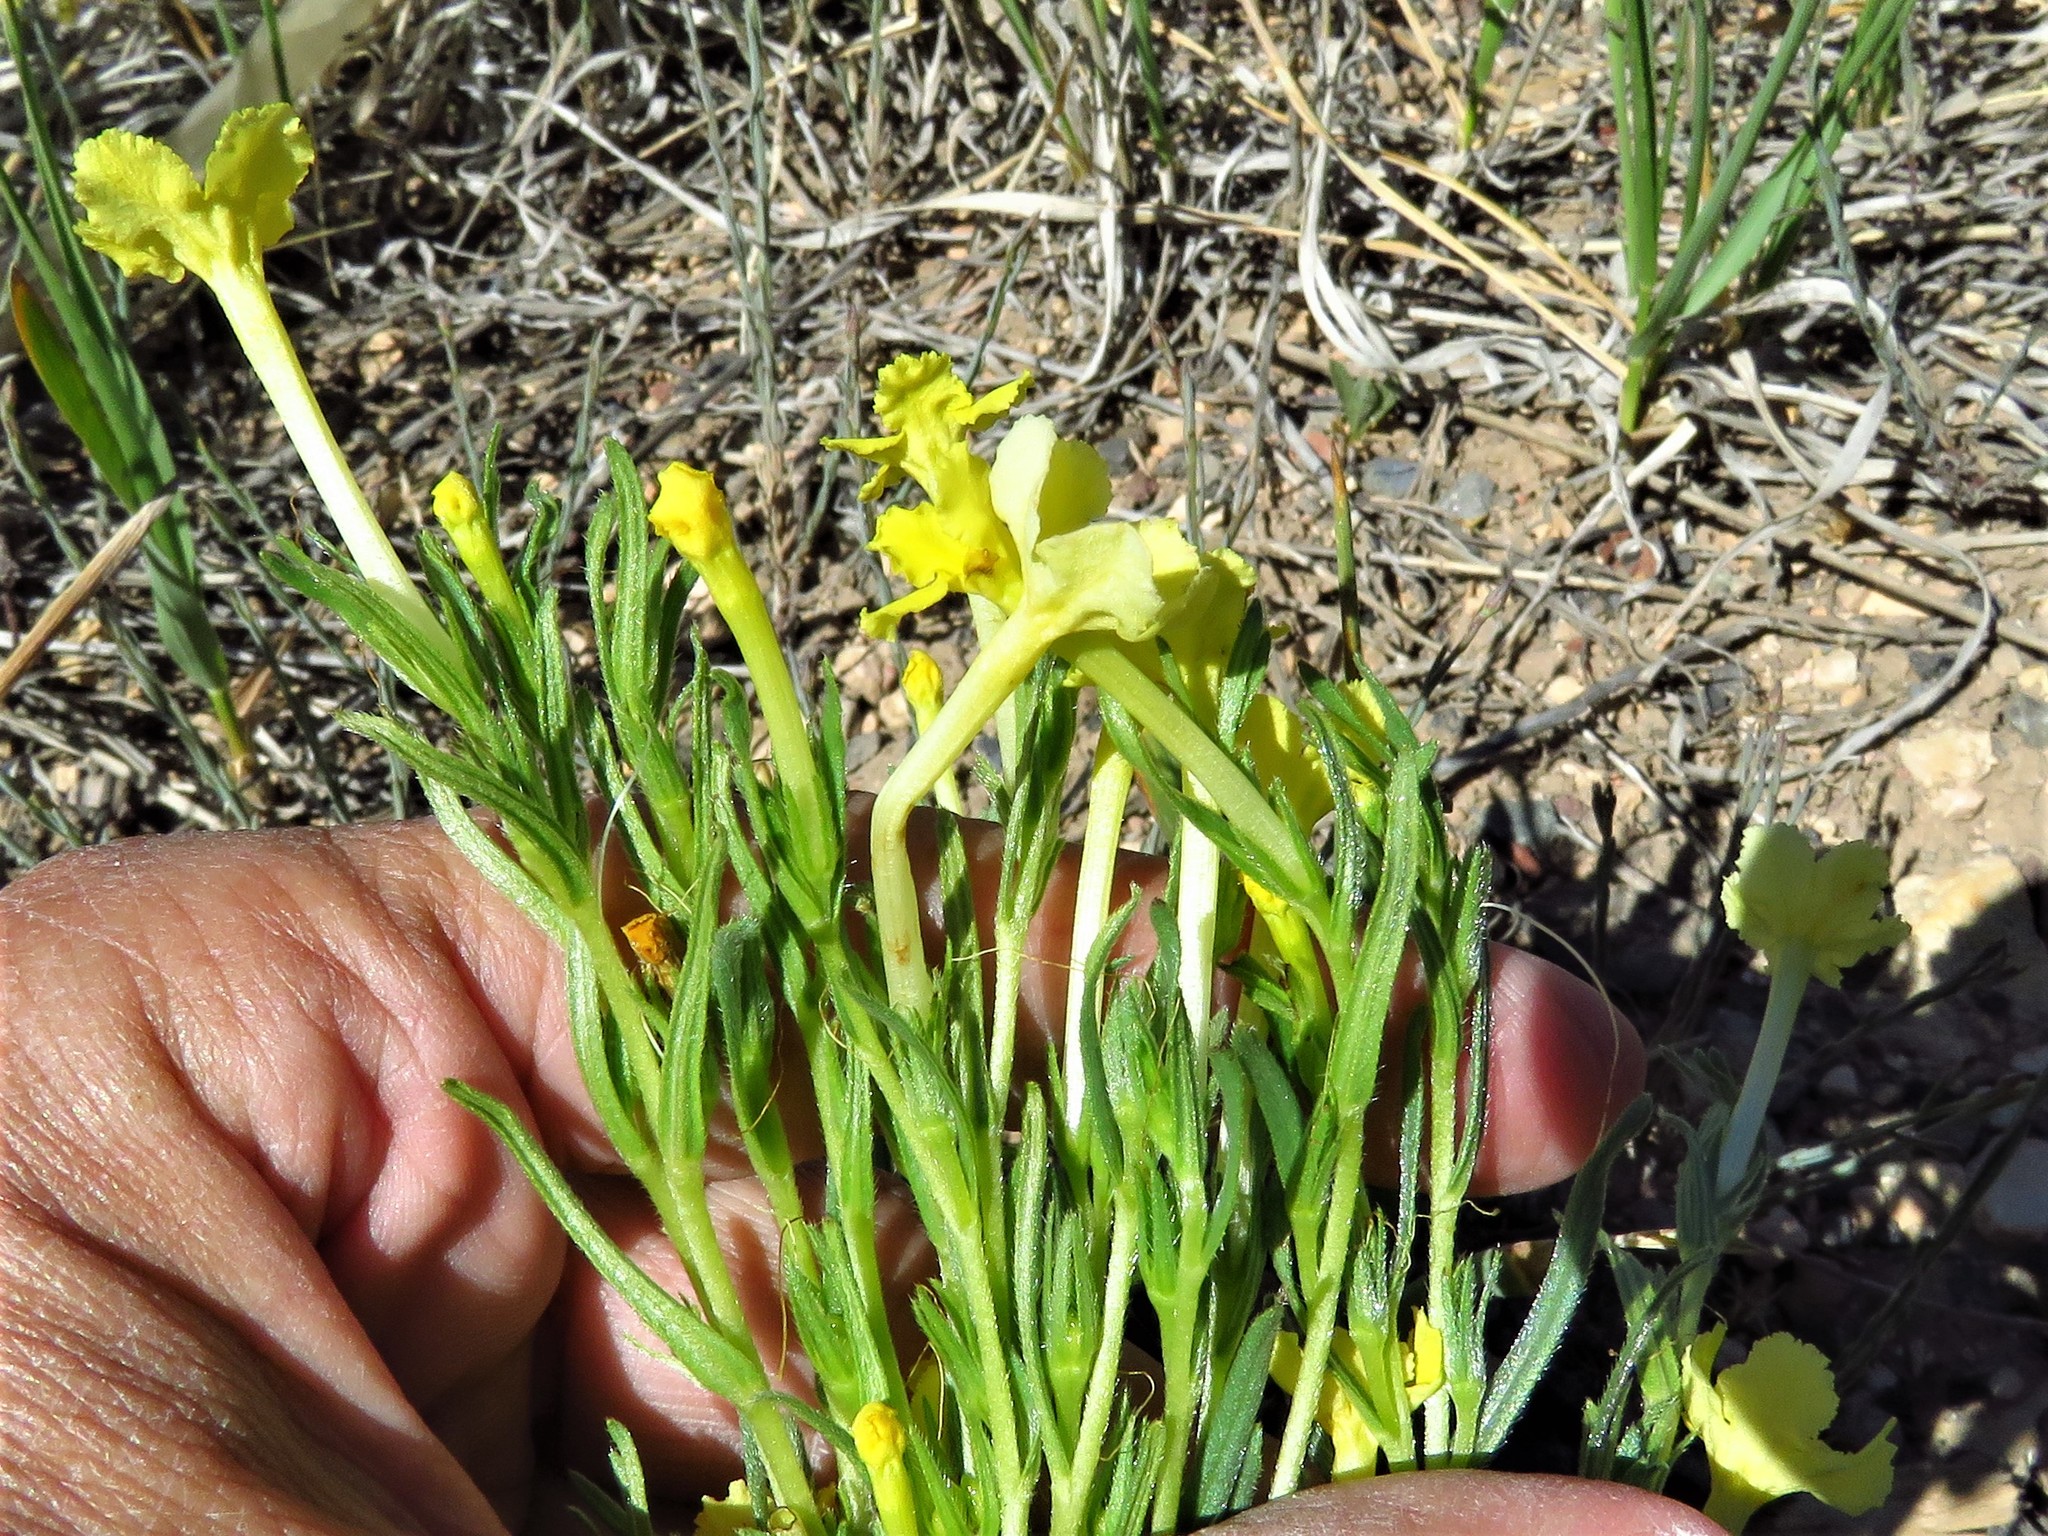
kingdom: Plantae
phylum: Tracheophyta
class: Magnoliopsida
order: Boraginales
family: Boraginaceae
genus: Lithospermum
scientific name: Lithospermum incisum
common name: Fringed gromwell
